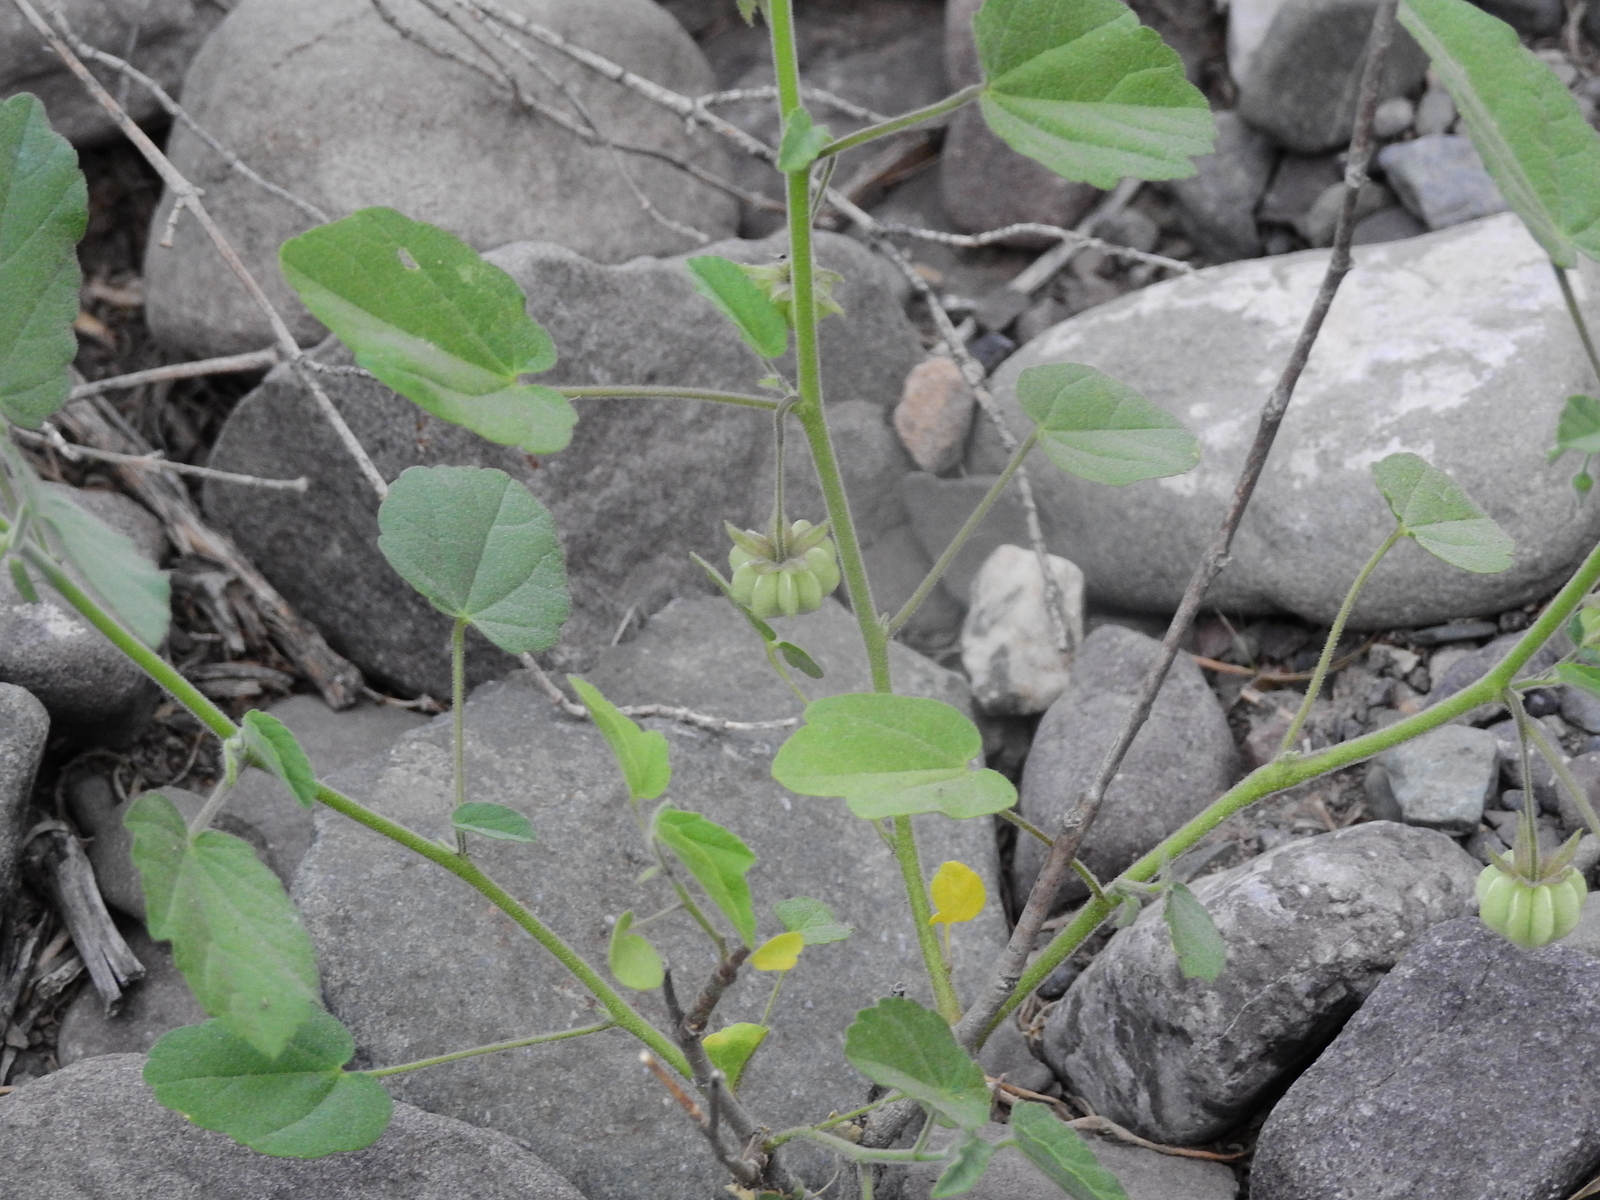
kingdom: Plantae
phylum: Tracheophyta
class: Magnoliopsida
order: Malvales
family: Malvaceae
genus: Gaya
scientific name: Gaya parviflora
